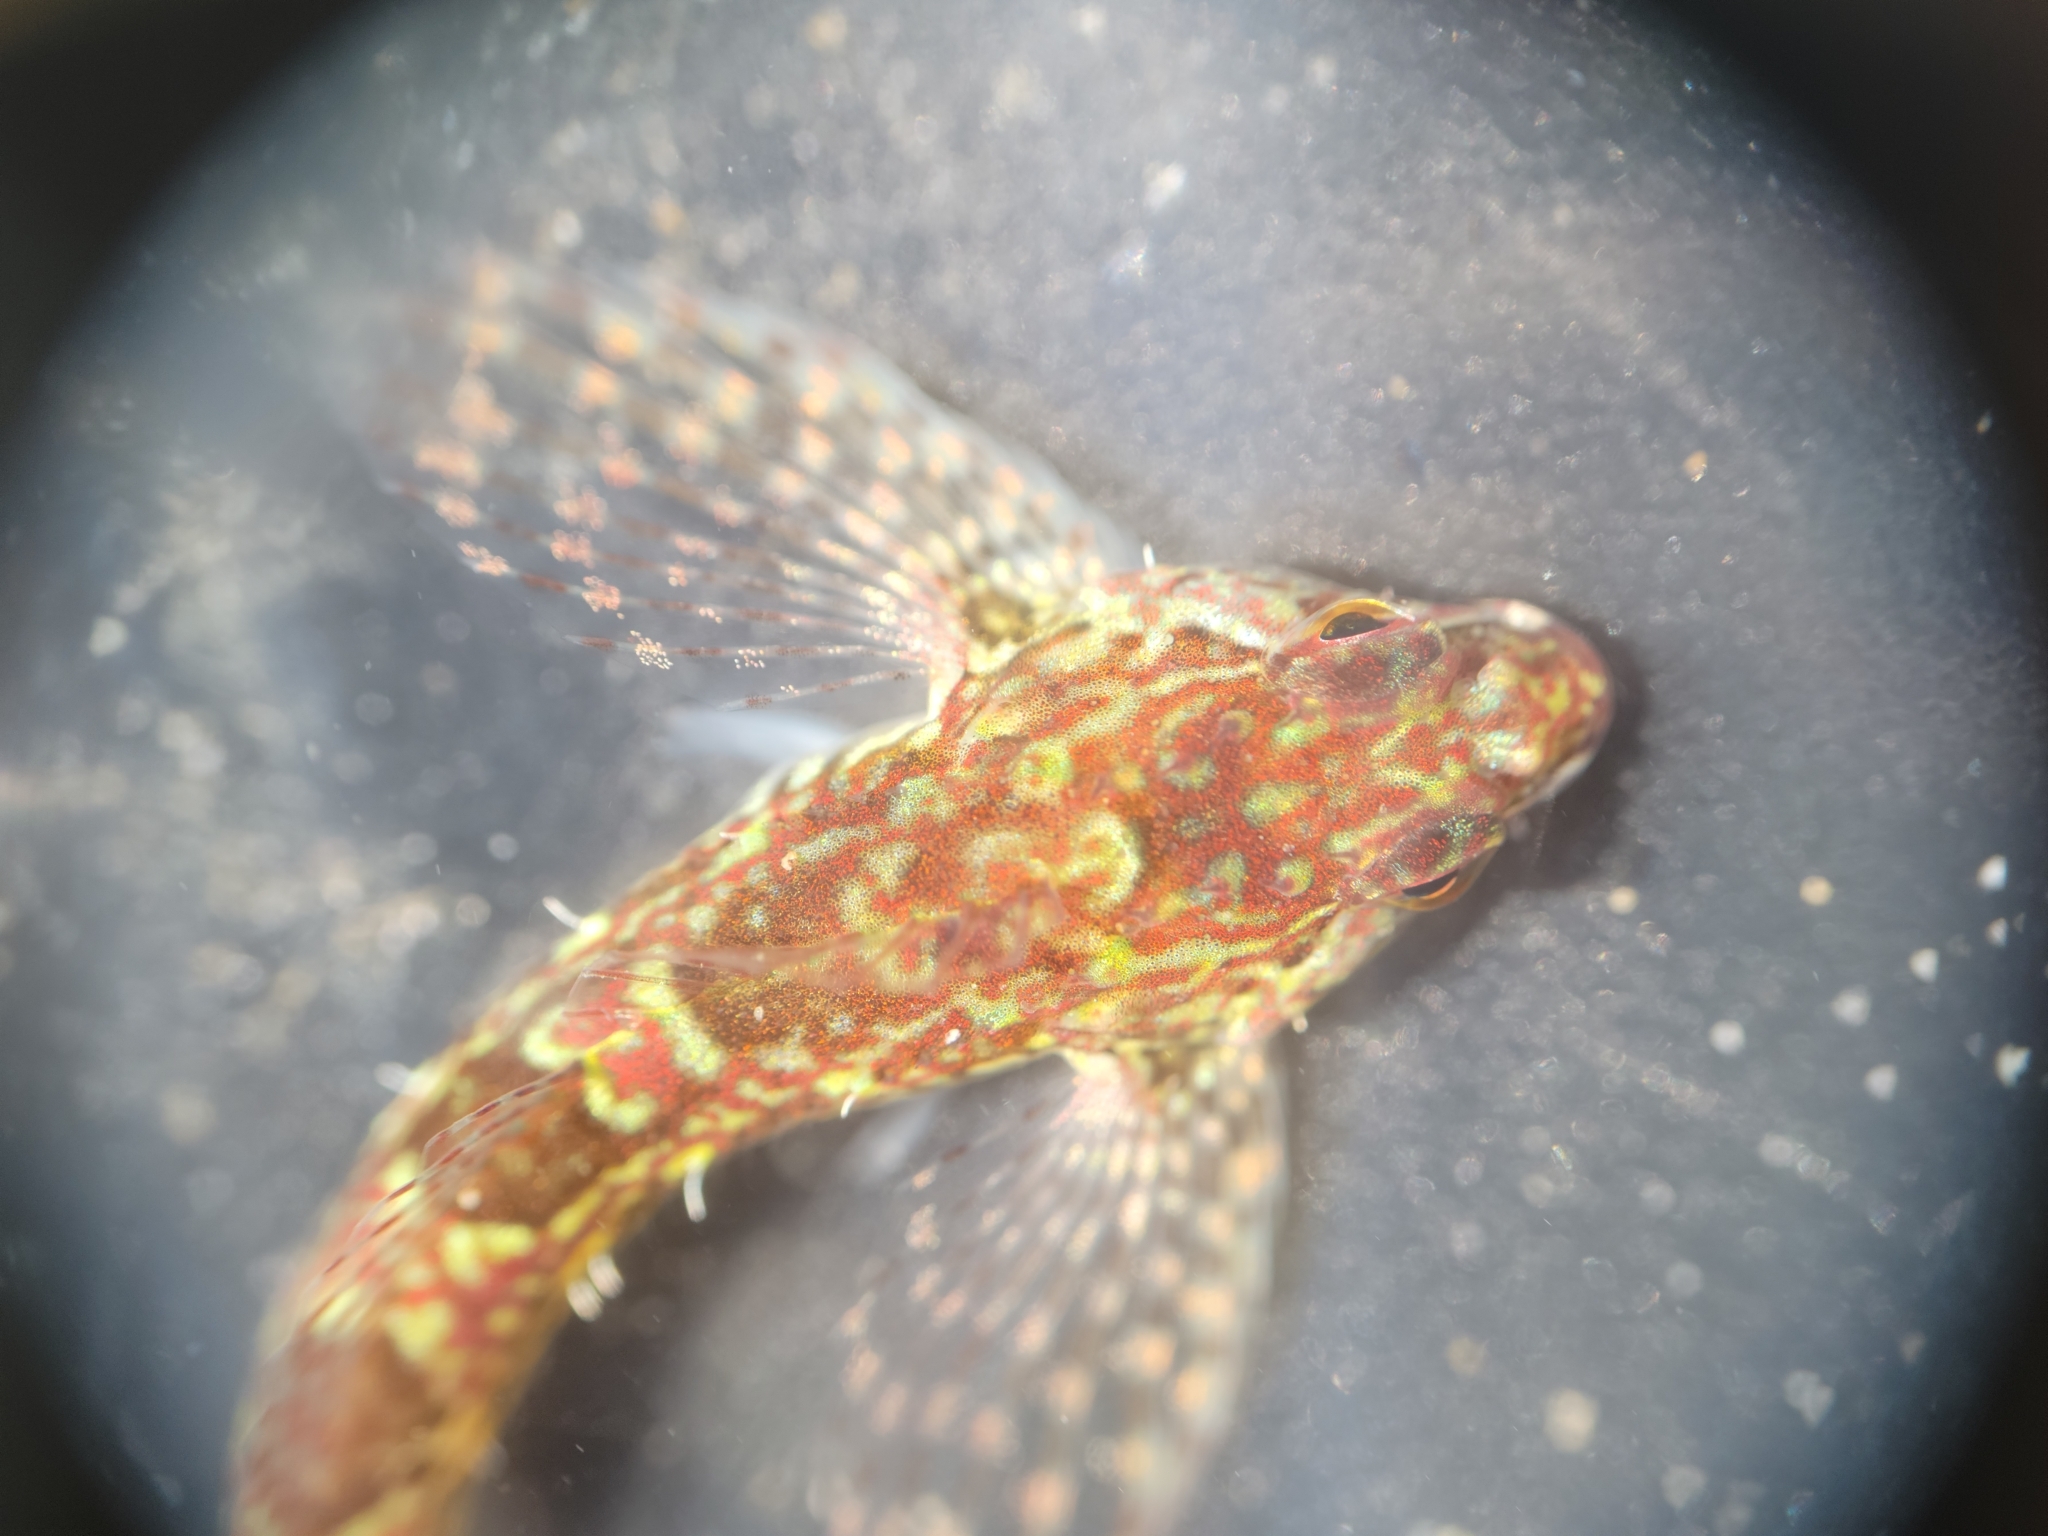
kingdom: Animalia
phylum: Chordata
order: Scorpaeniformes
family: Cottidae
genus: Oligocottus
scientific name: Oligocottus rimensis
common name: Saddleback sculpin
